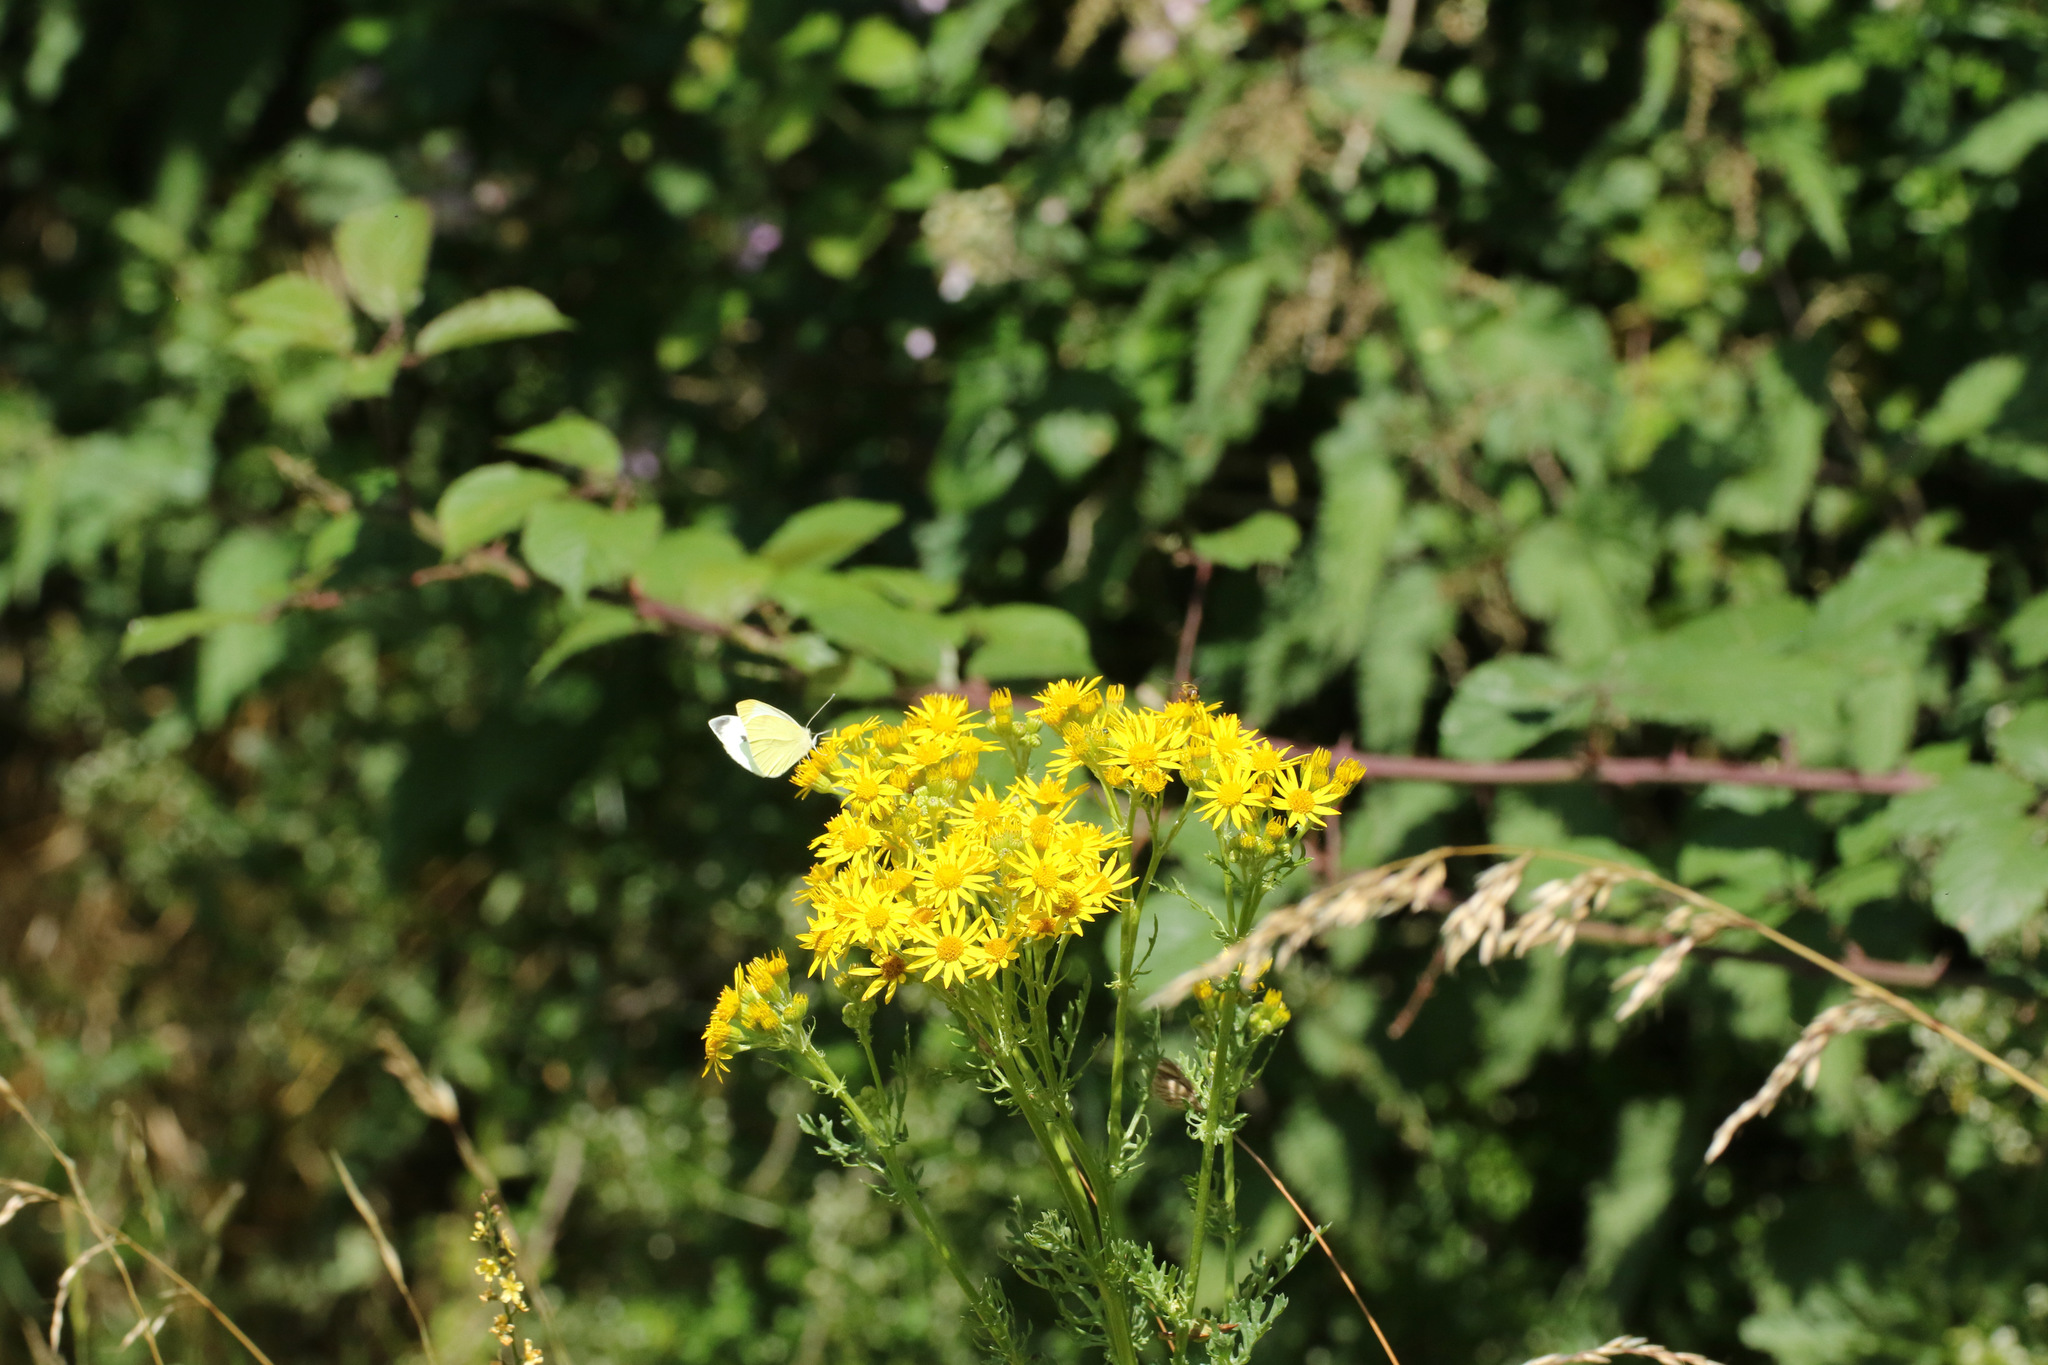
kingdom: Plantae
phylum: Tracheophyta
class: Magnoliopsida
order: Asterales
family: Asteraceae
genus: Jacobaea
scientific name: Jacobaea vulgaris
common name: Stinking willie
